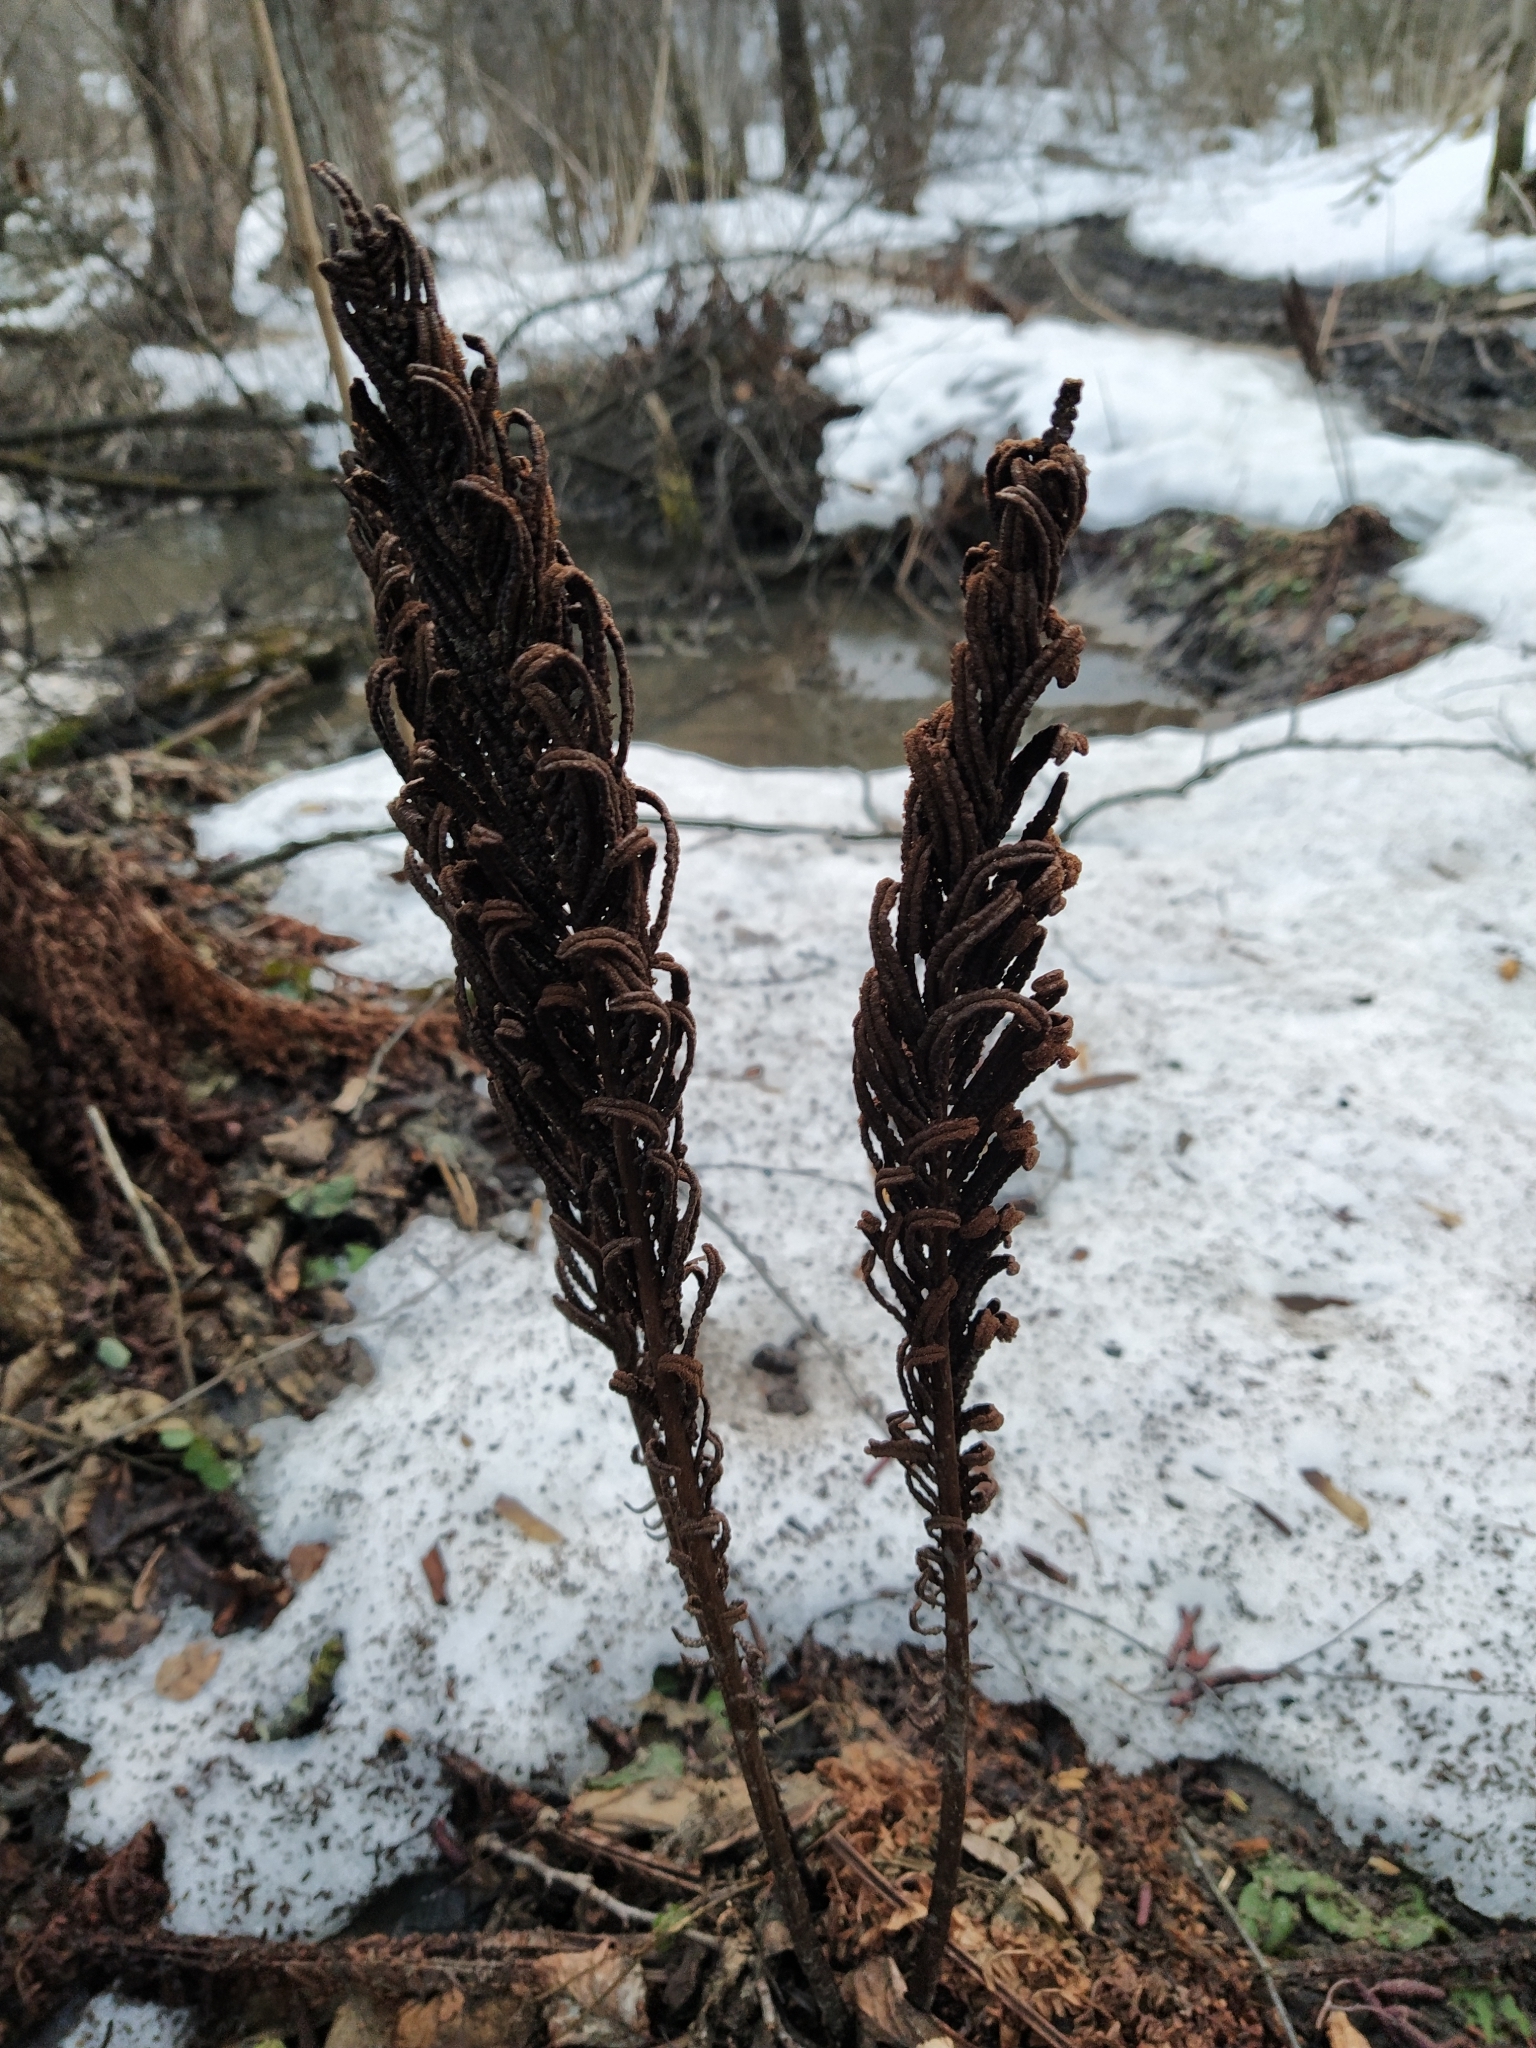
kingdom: Plantae
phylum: Tracheophyta
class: Polypodiopsida
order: Polypodiales
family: Onocleaceae
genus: Matteuccia
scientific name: Matteuccia struthiopteris
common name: Ostrich fern
